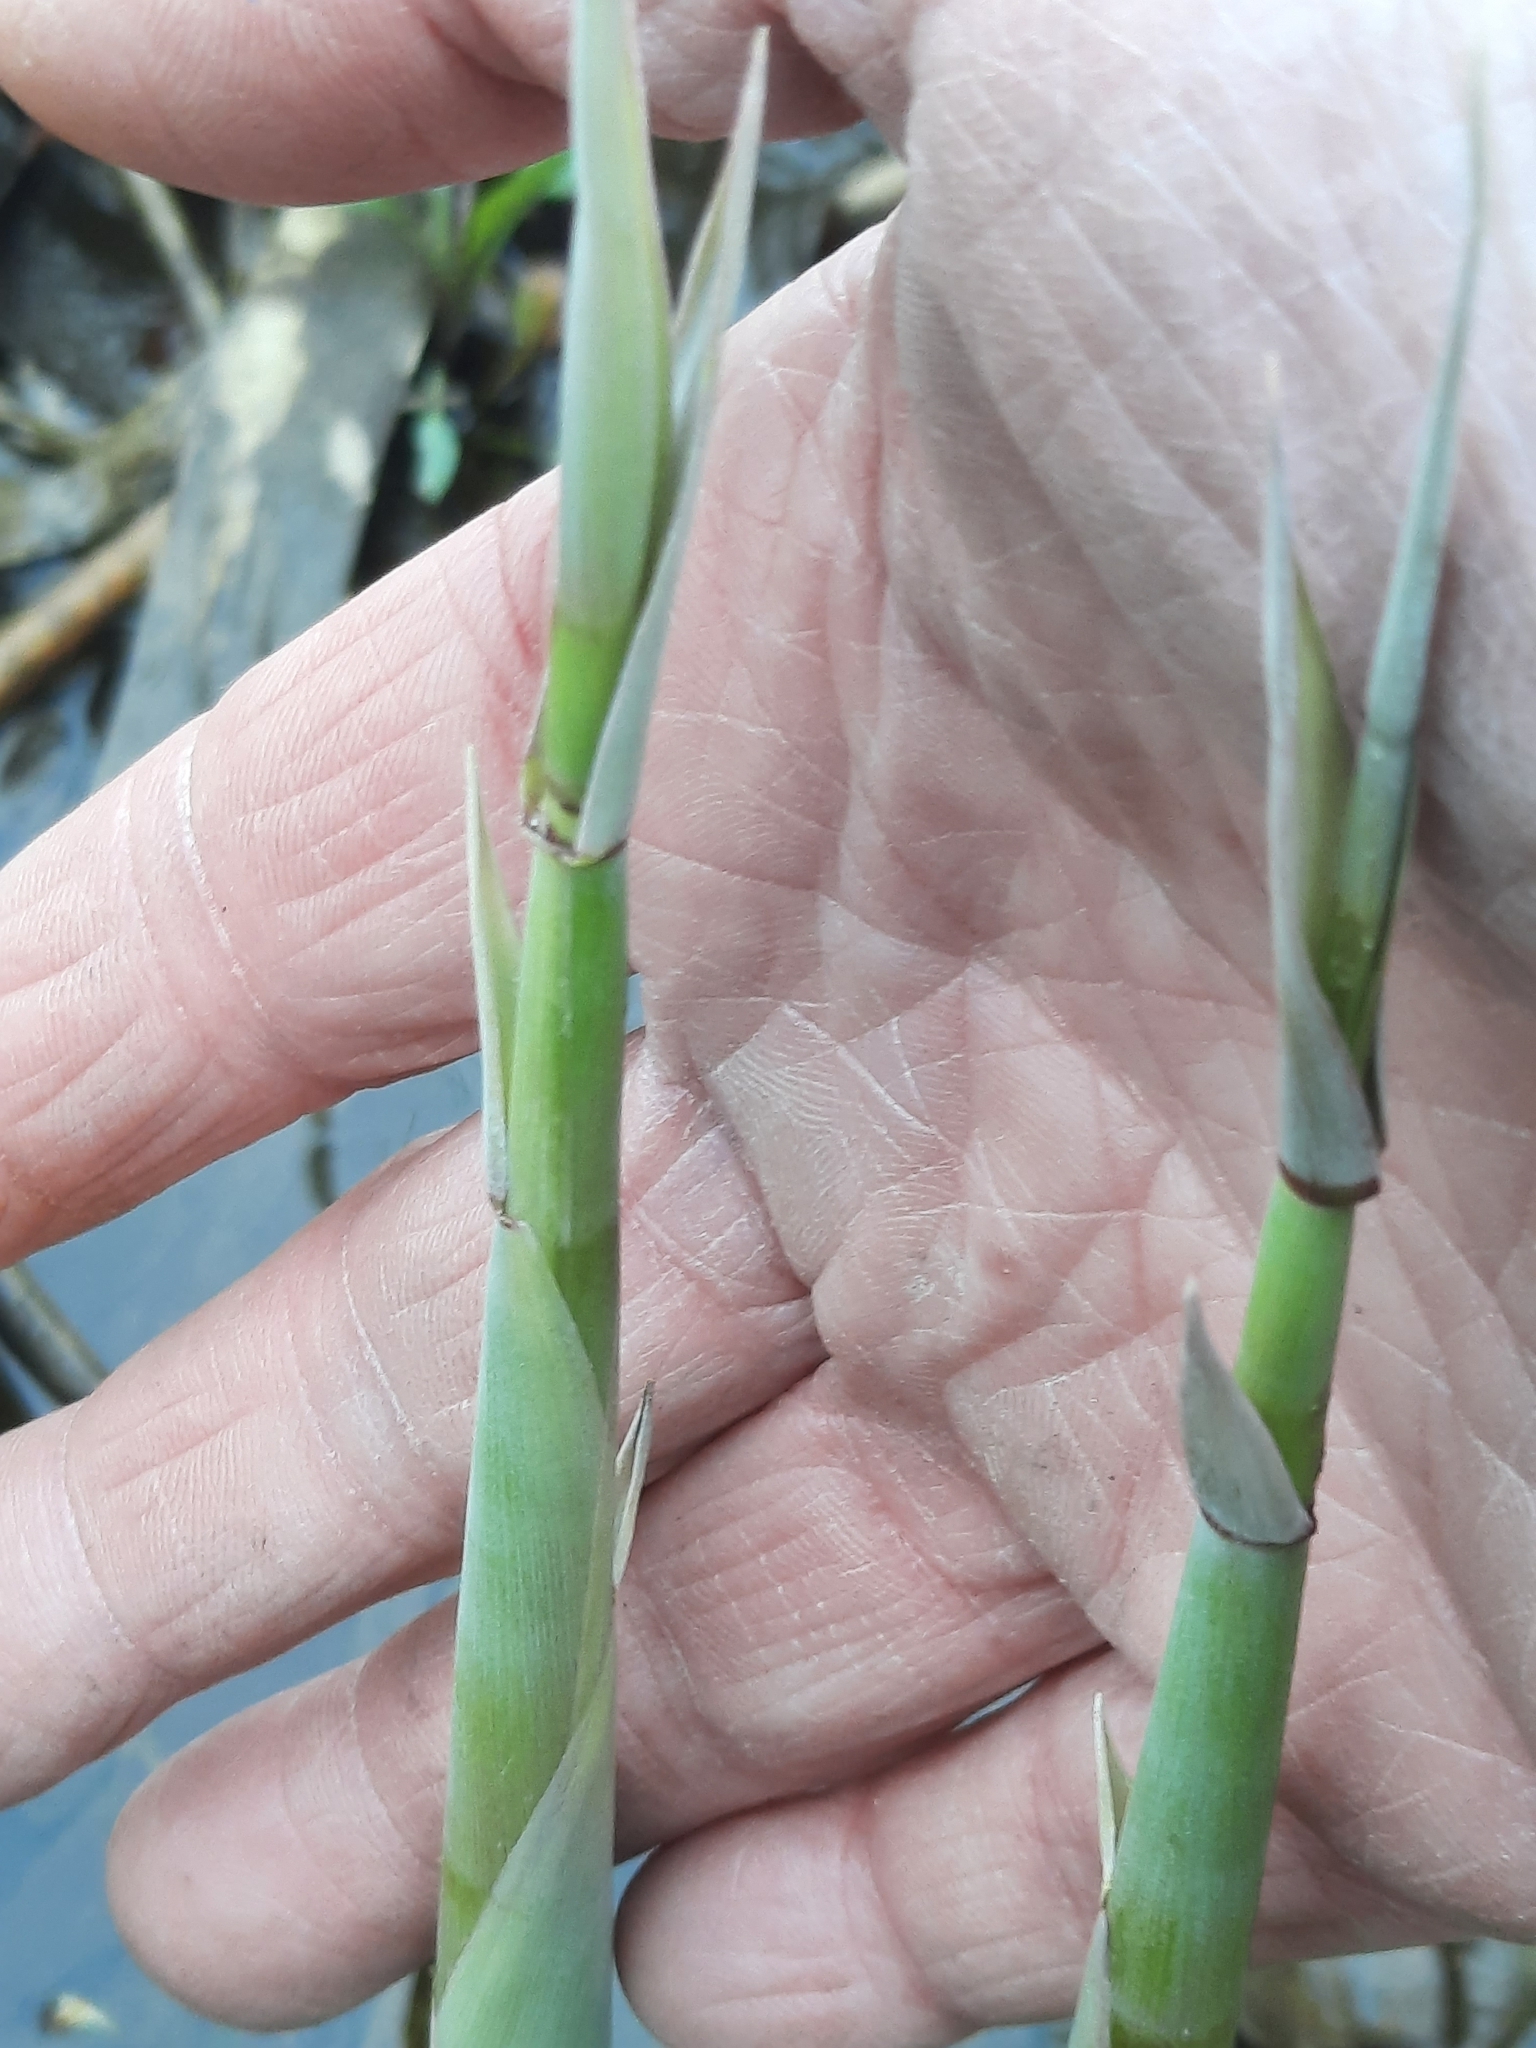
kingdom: Plantae
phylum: Tracheophyta
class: Liliopsida
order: Poales
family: Poaceae
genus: Phragmites
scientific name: Phragmites australis
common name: Common reed
